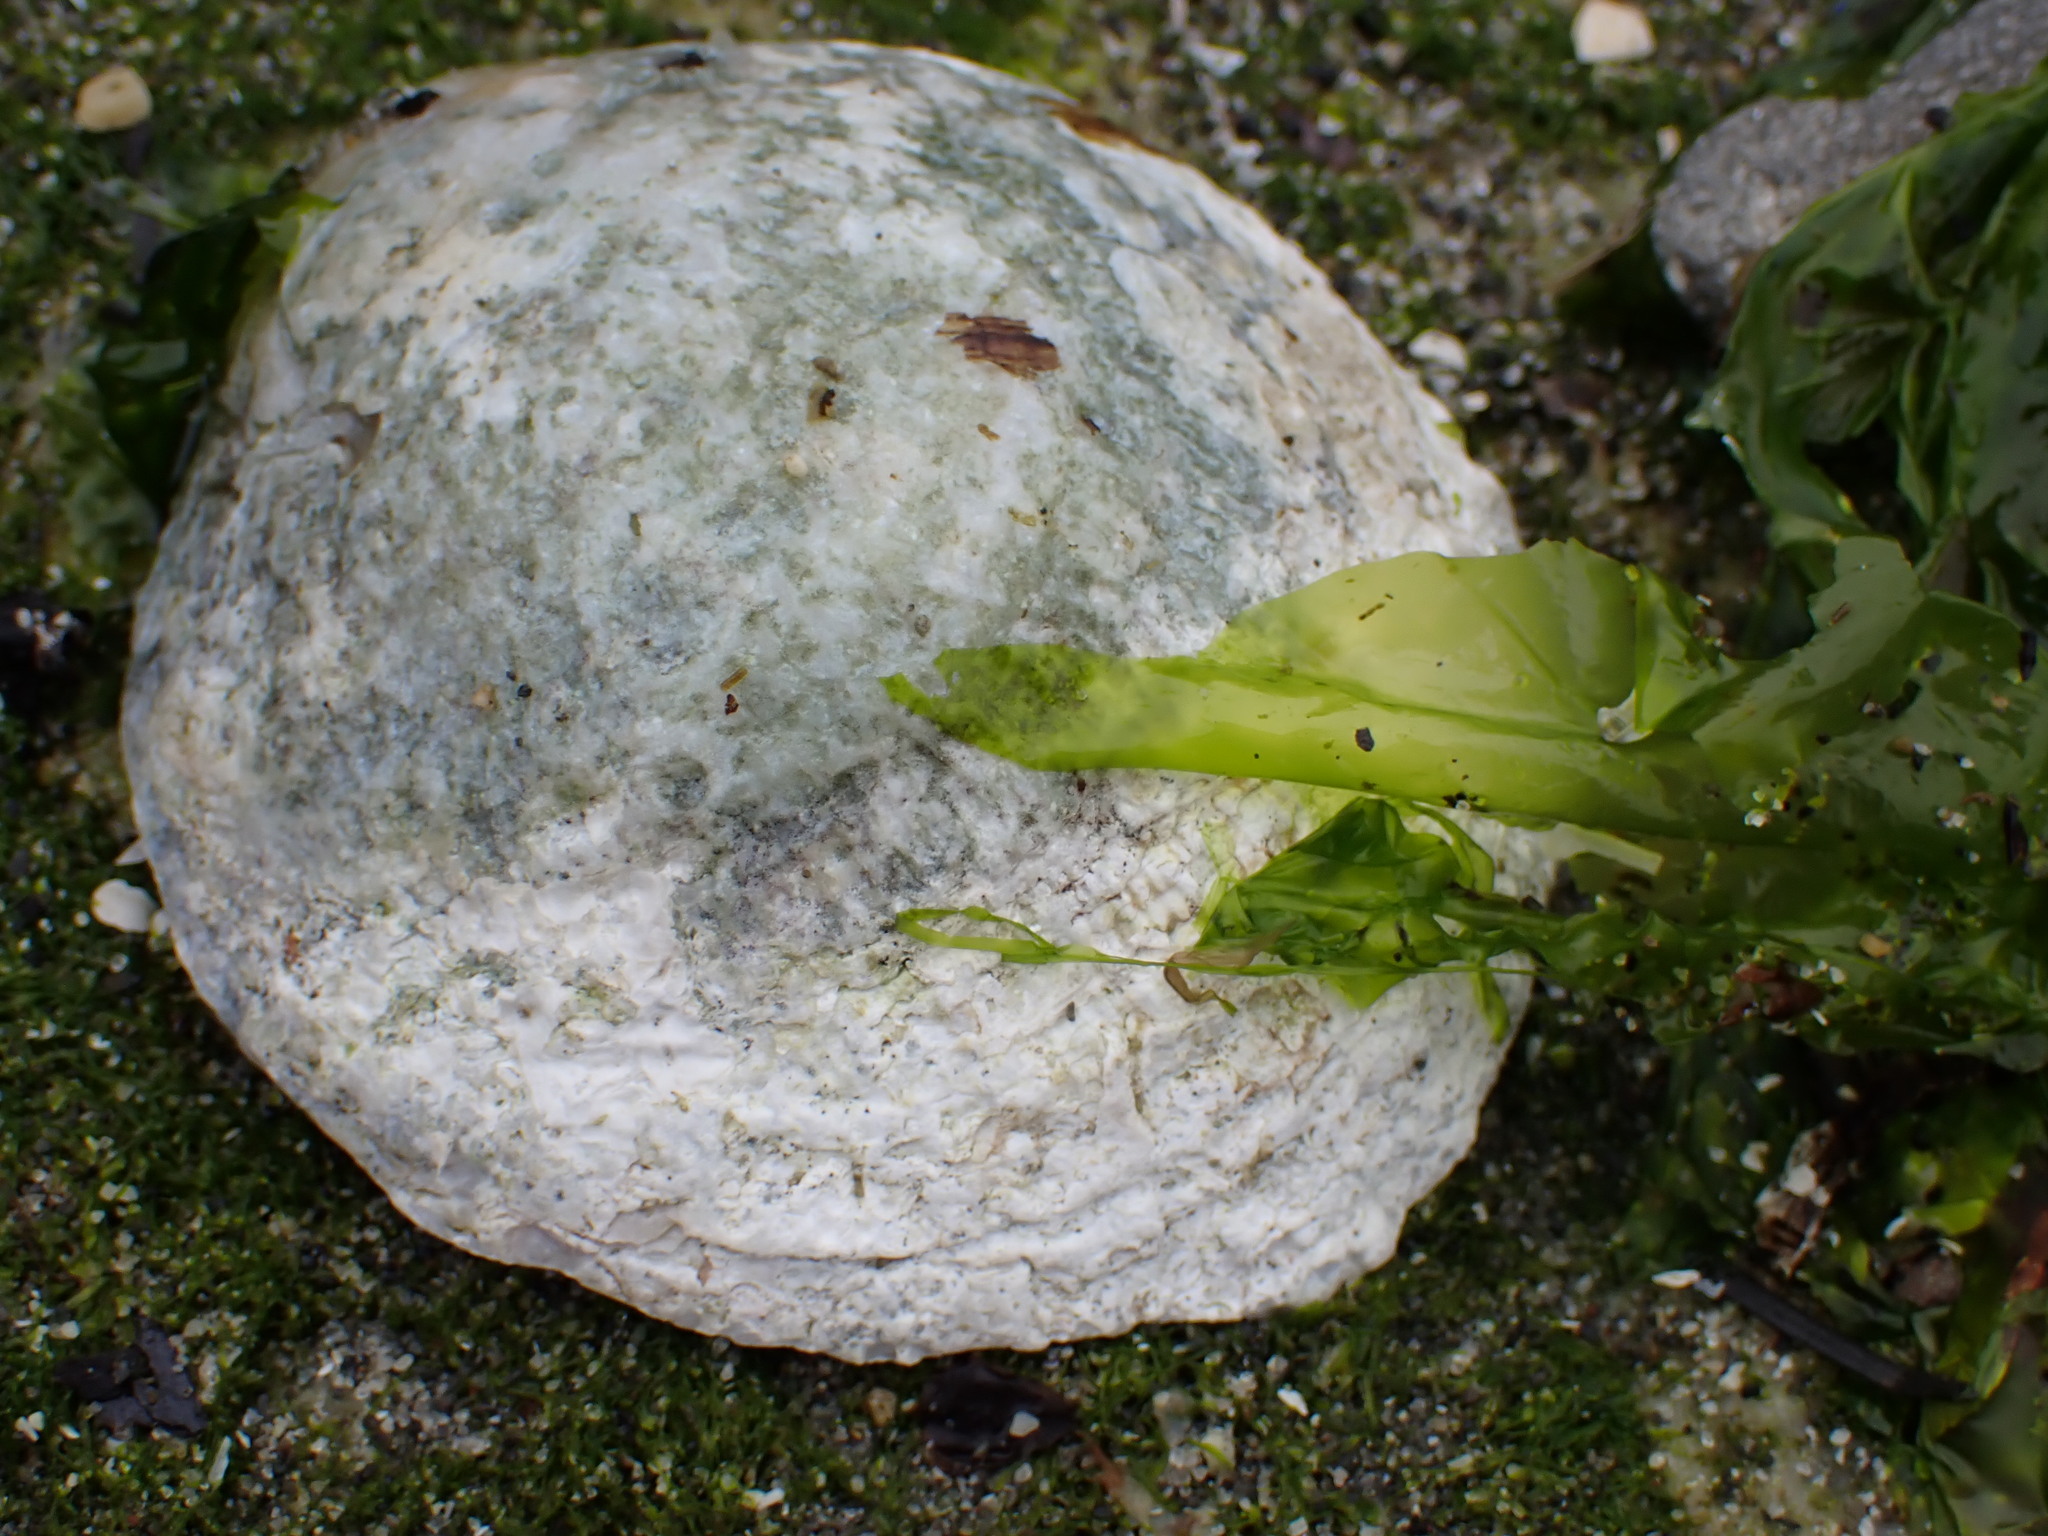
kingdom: Animalia
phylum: Mollusca
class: Bivalvia
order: Pectinida
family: Anomiidae
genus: Pododesmus
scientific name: Pododesmus macrochisma
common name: Alaska jingle
